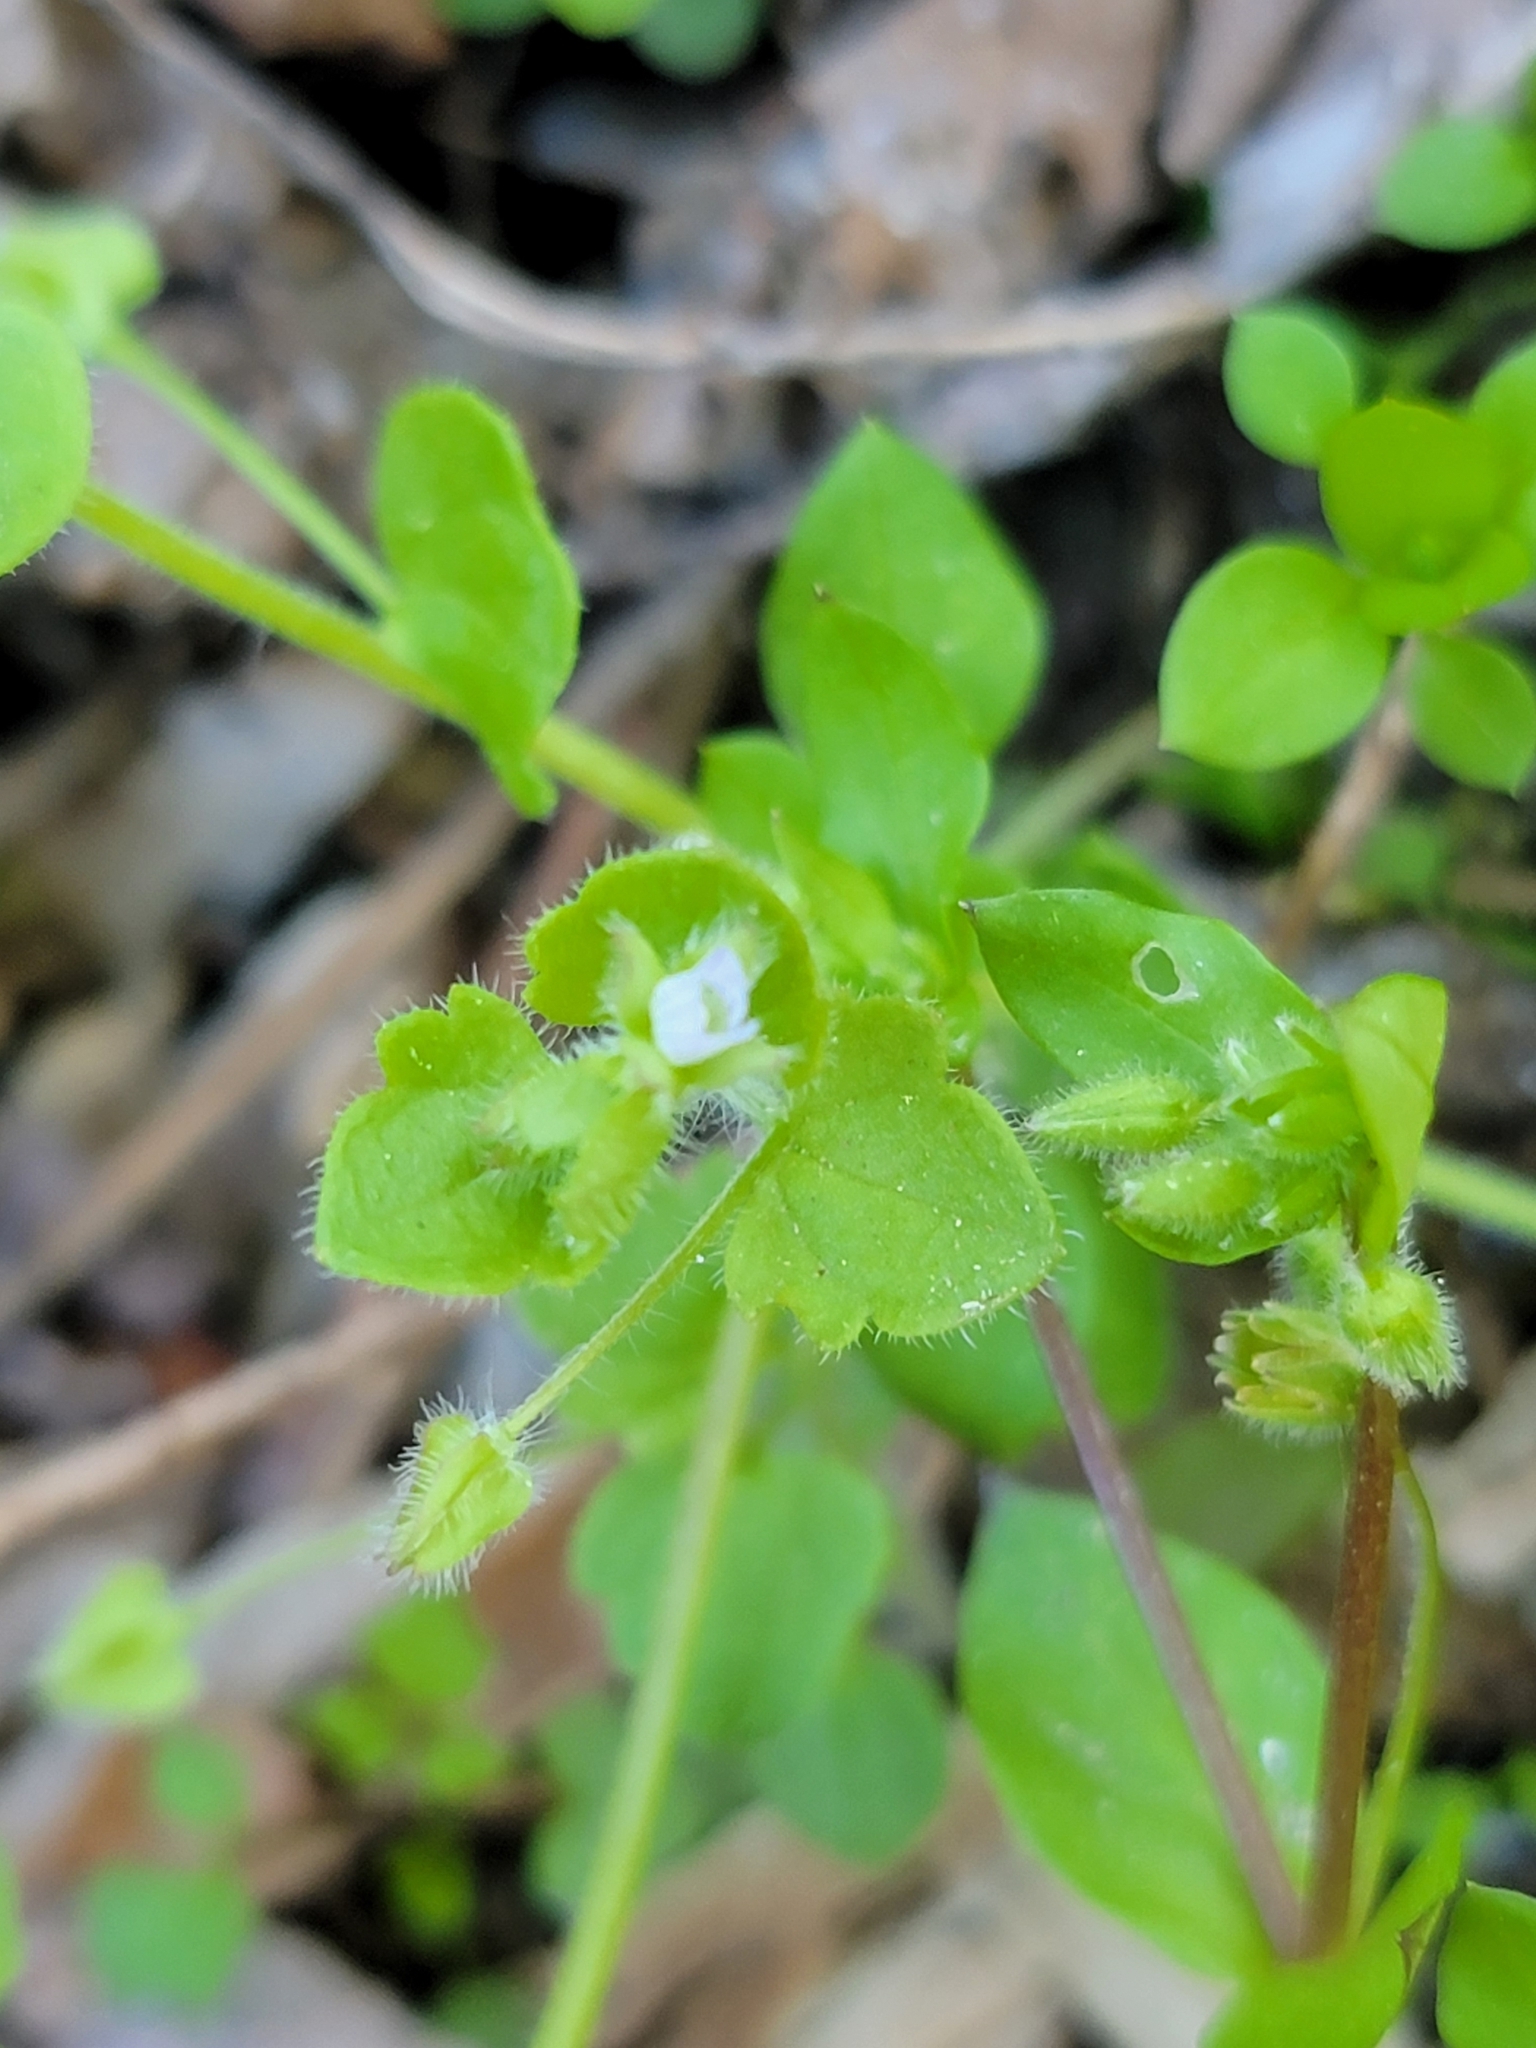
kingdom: Plantae
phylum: Tracheophyta
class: Magnoliopsida
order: Lamiales
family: Plantaginaceae
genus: Veronica
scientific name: Veronica sublobata
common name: False ivy-leaved speedwell
